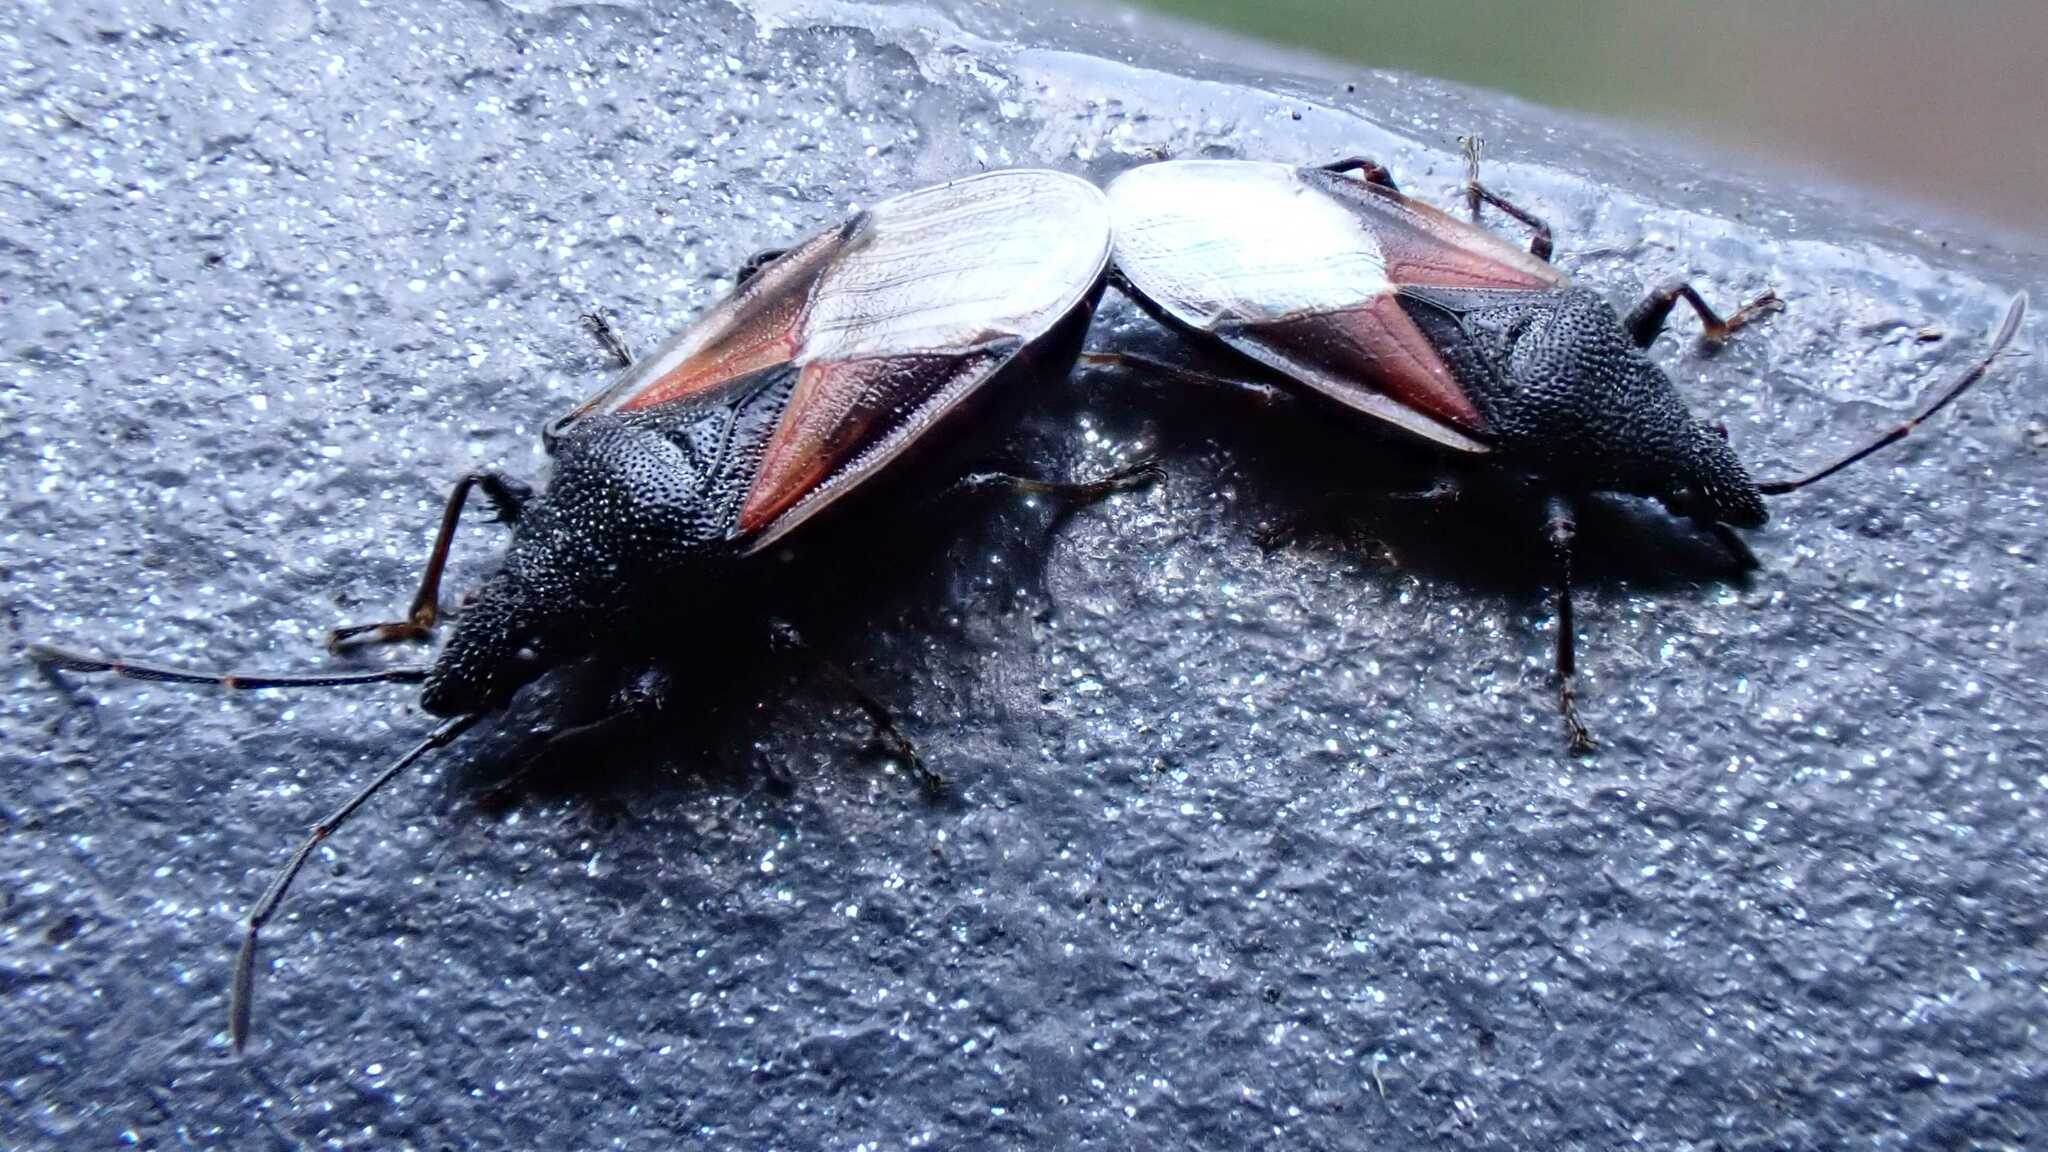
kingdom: Animalia
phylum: Arthropoda
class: Insecta
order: Hemiptera
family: Oxycarenidae
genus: Oxycarenus
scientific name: Oxycarenus lavaterae
